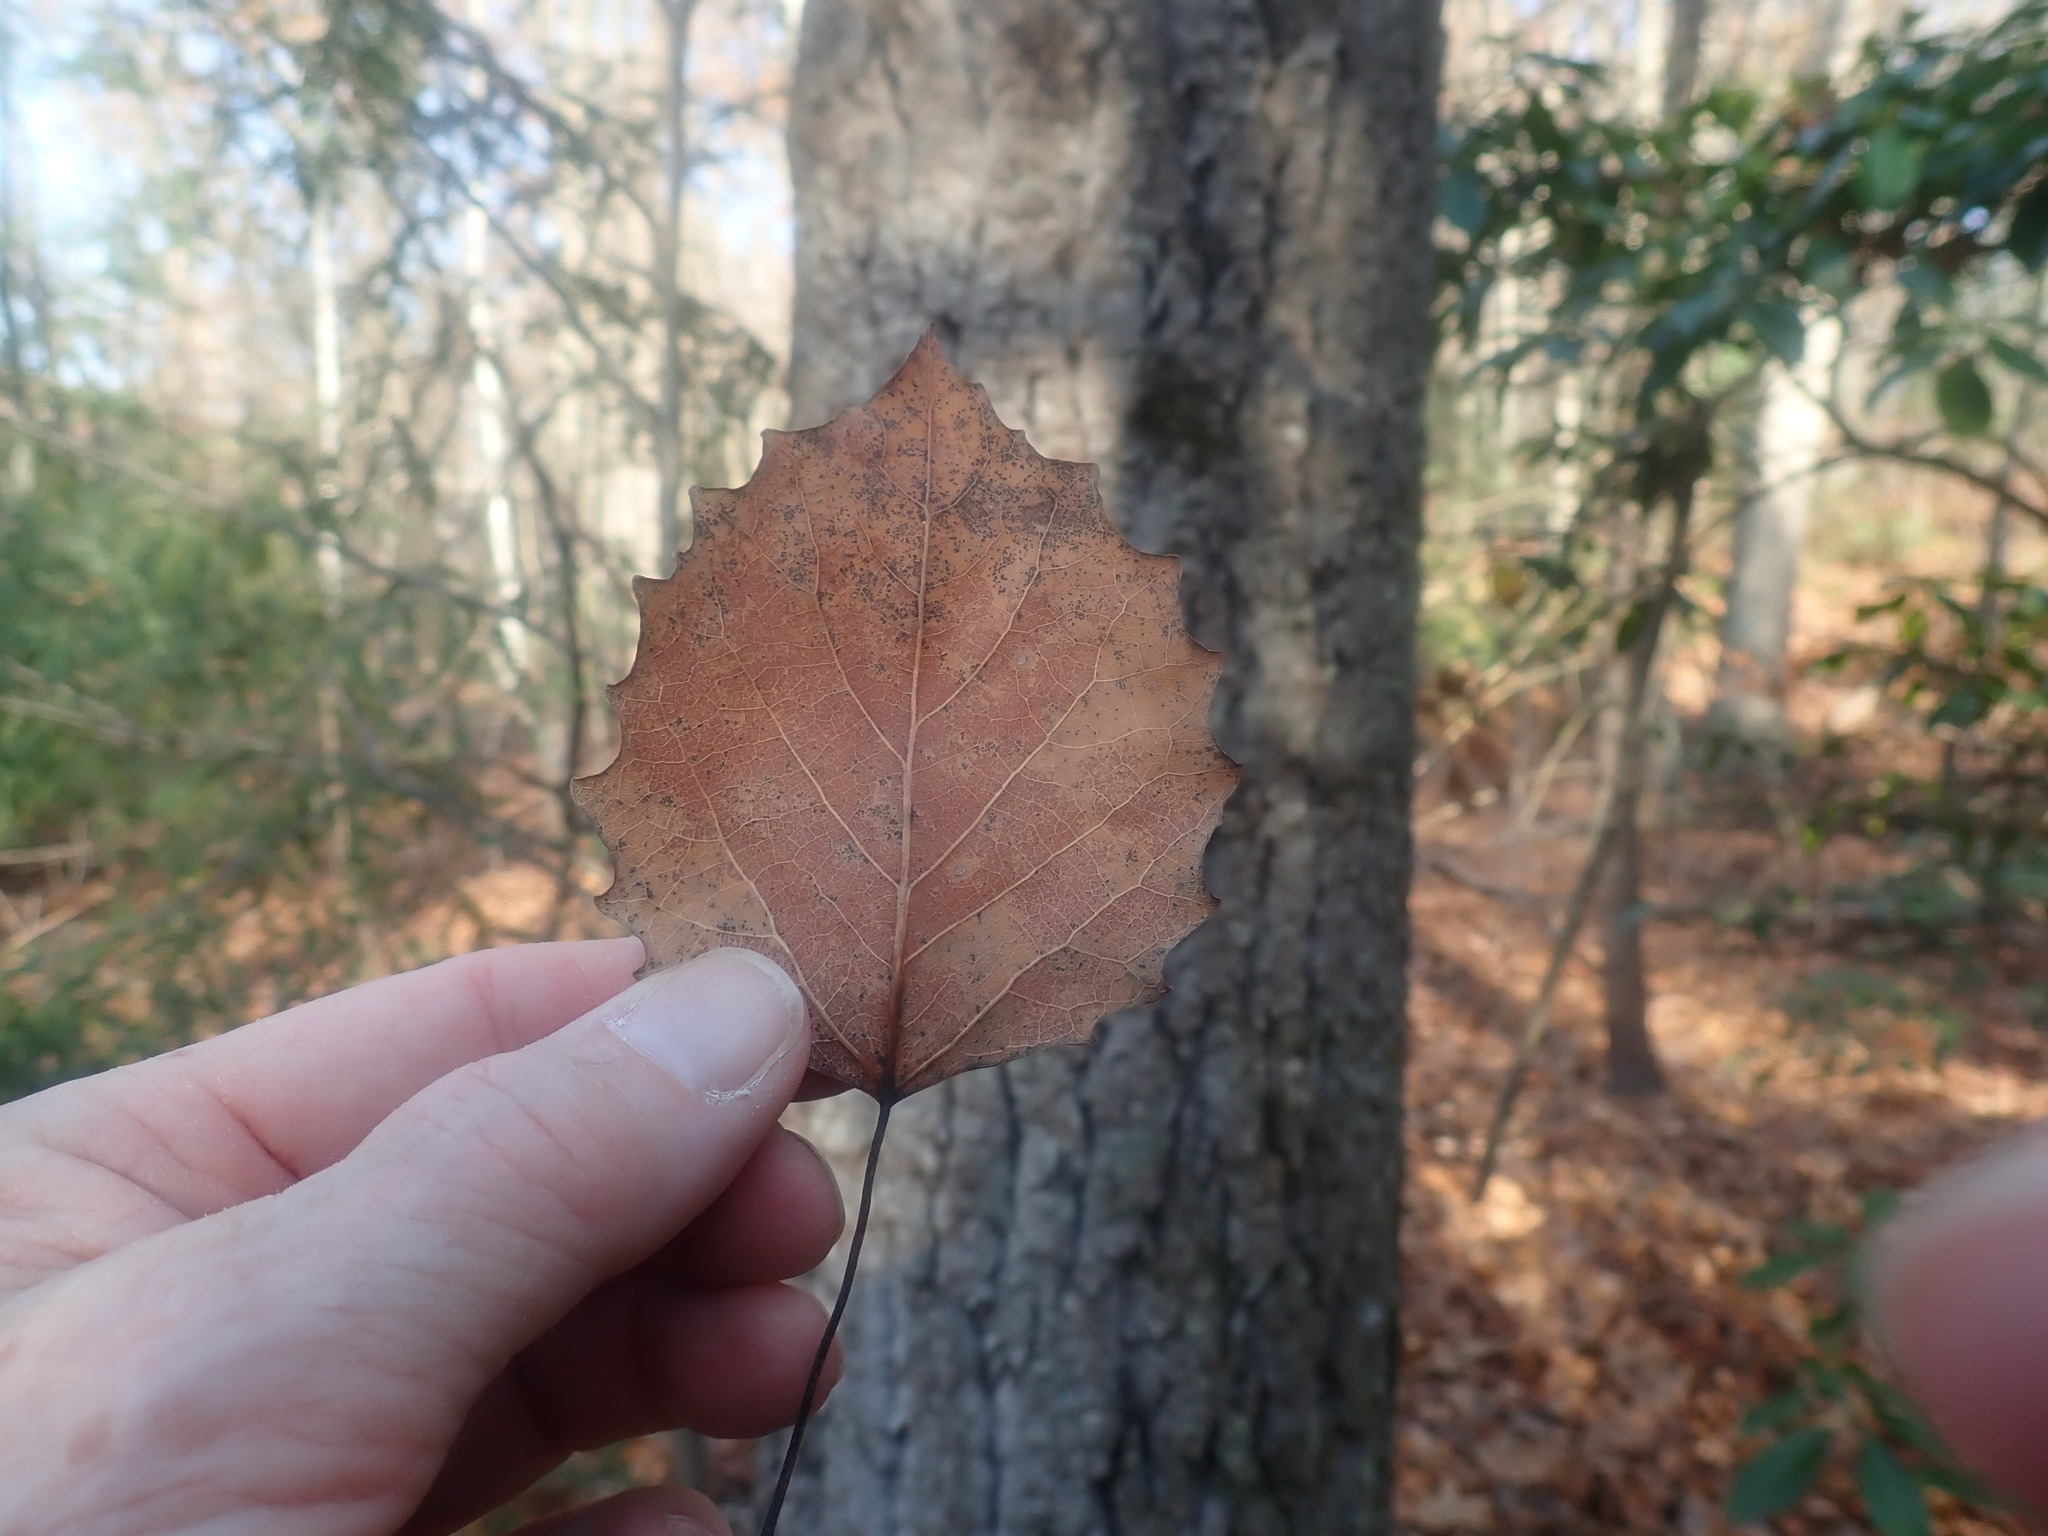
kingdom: Plantae
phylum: Tracheophyta
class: Magnoliopsida
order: Malpighiales
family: Salicaceae
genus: Populus
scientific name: Populus grandidentata
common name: Bigtooth aspen
